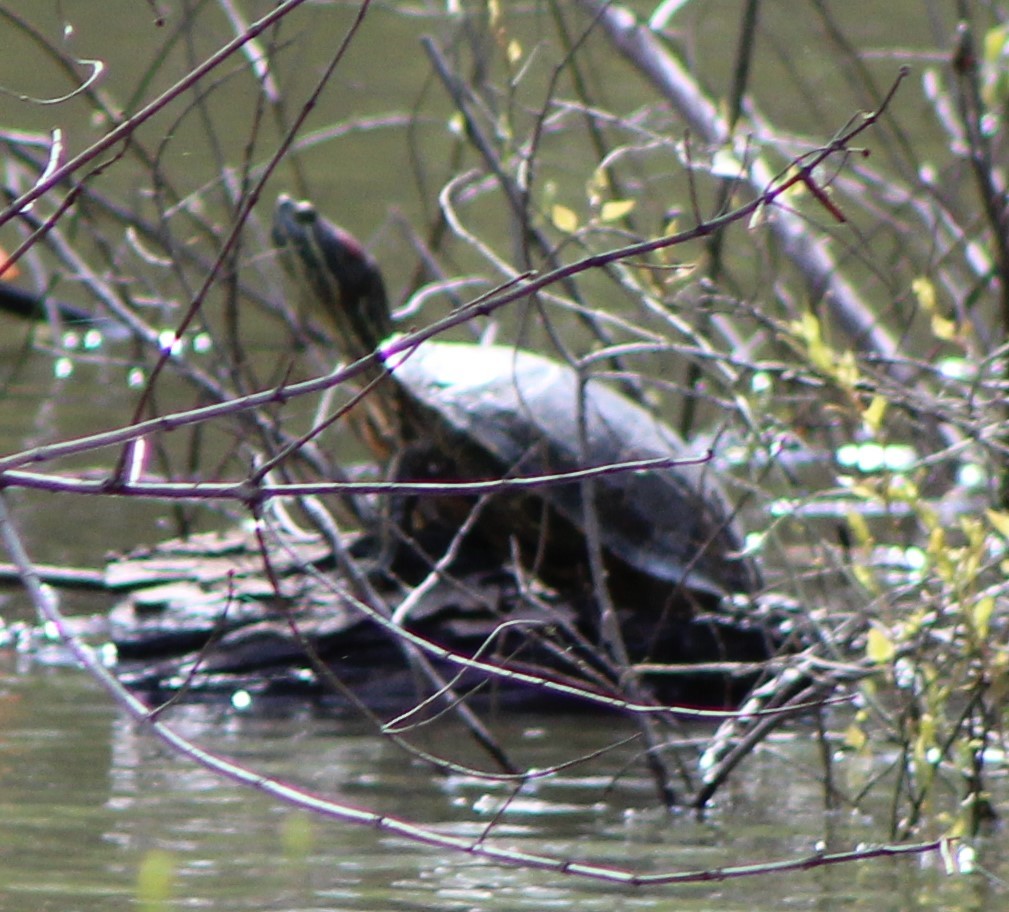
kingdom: Animalia
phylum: Chordata
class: Testudines
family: Emydidae
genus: Trachemys
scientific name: Trachemys scripta
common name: Slider
